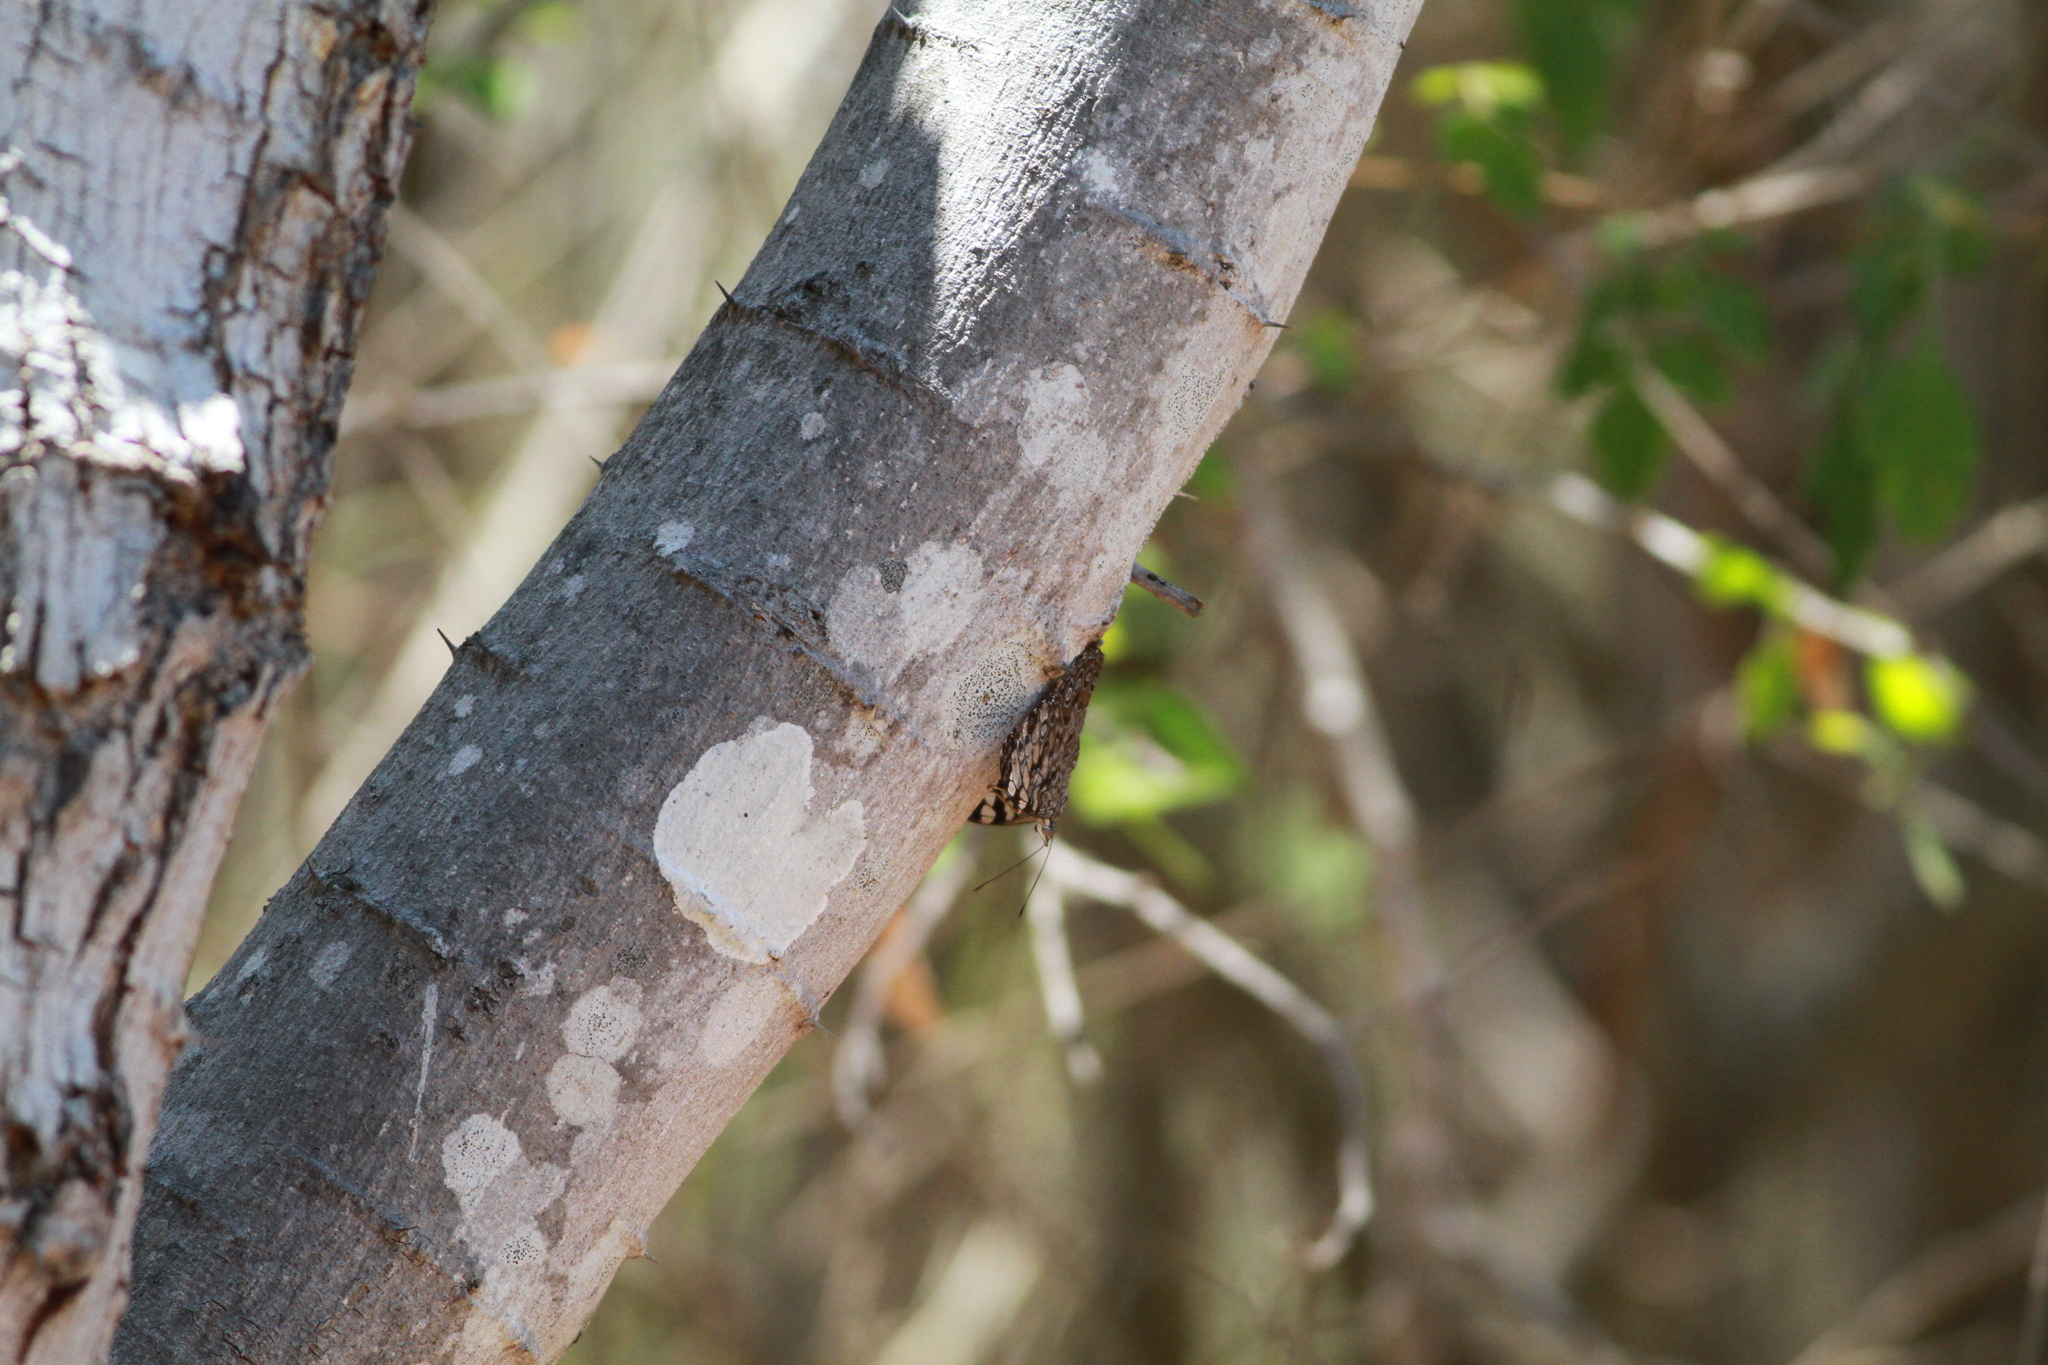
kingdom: Animalia
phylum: Arthropoda
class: Insecta
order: Lepidoptera
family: Nymphalidae
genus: Hamadryas
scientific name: Hamadryas guatemalena
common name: Guatemalan cracker
